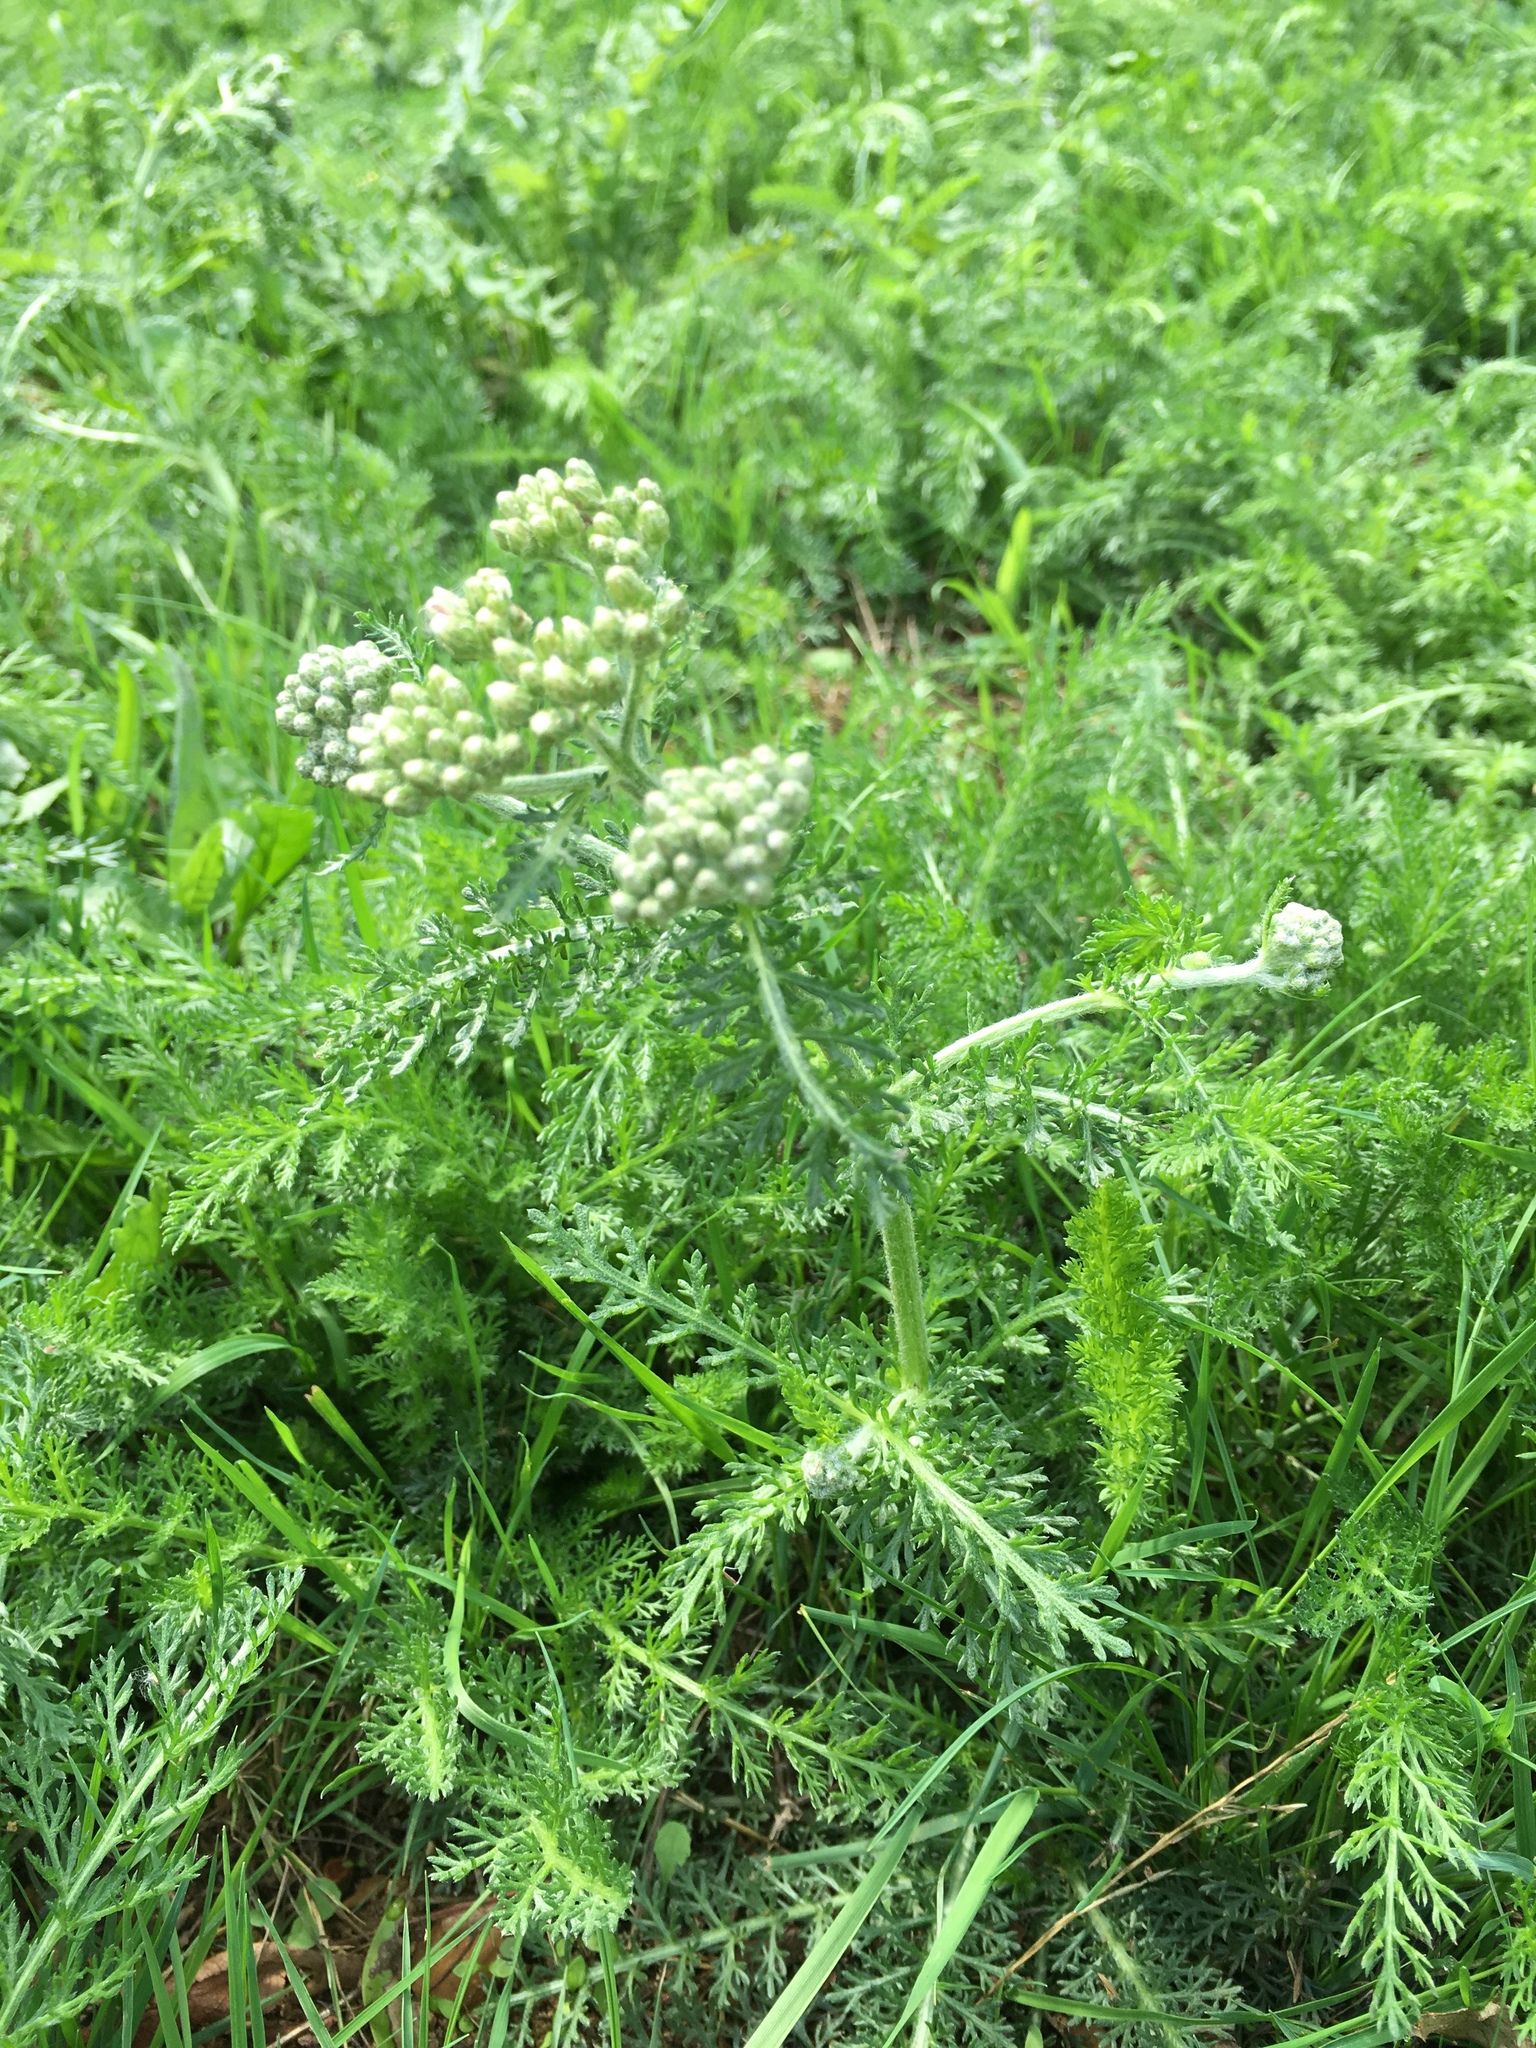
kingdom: Plantae
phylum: Tracheophyta
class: Magnoliopsida
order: Asterales
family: Asteraceae
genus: Achillea
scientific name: Achillea millefolium
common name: Yarrow
